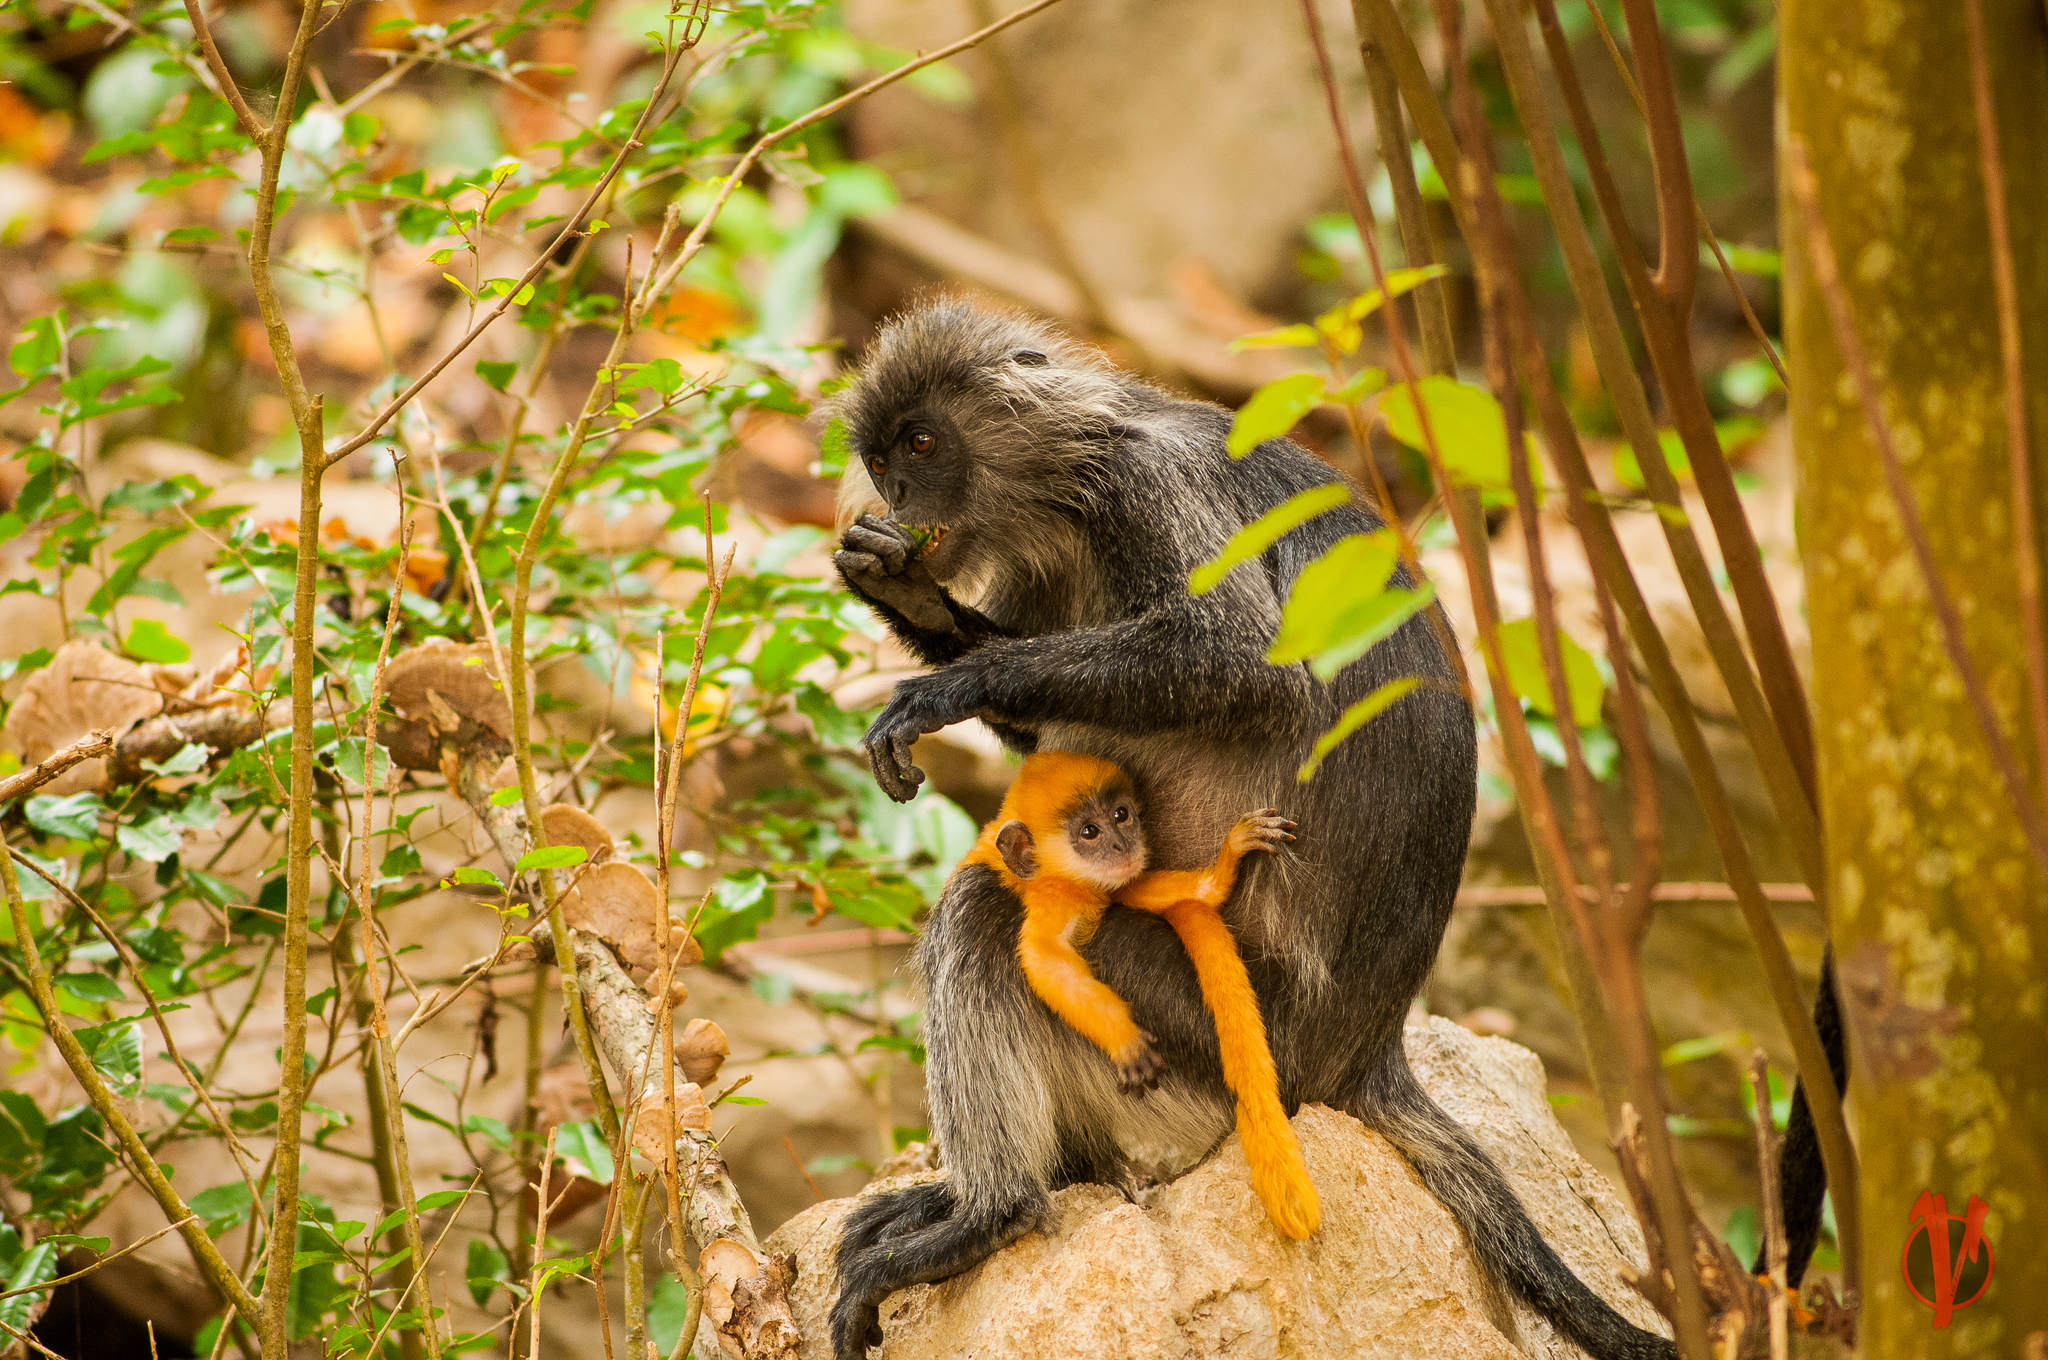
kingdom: Animalia
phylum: Chordata
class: Mammalia
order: Primates
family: Cercopithecidae
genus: Trachypithecus
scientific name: Trachypithecus germaini
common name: Indochinese lutung
